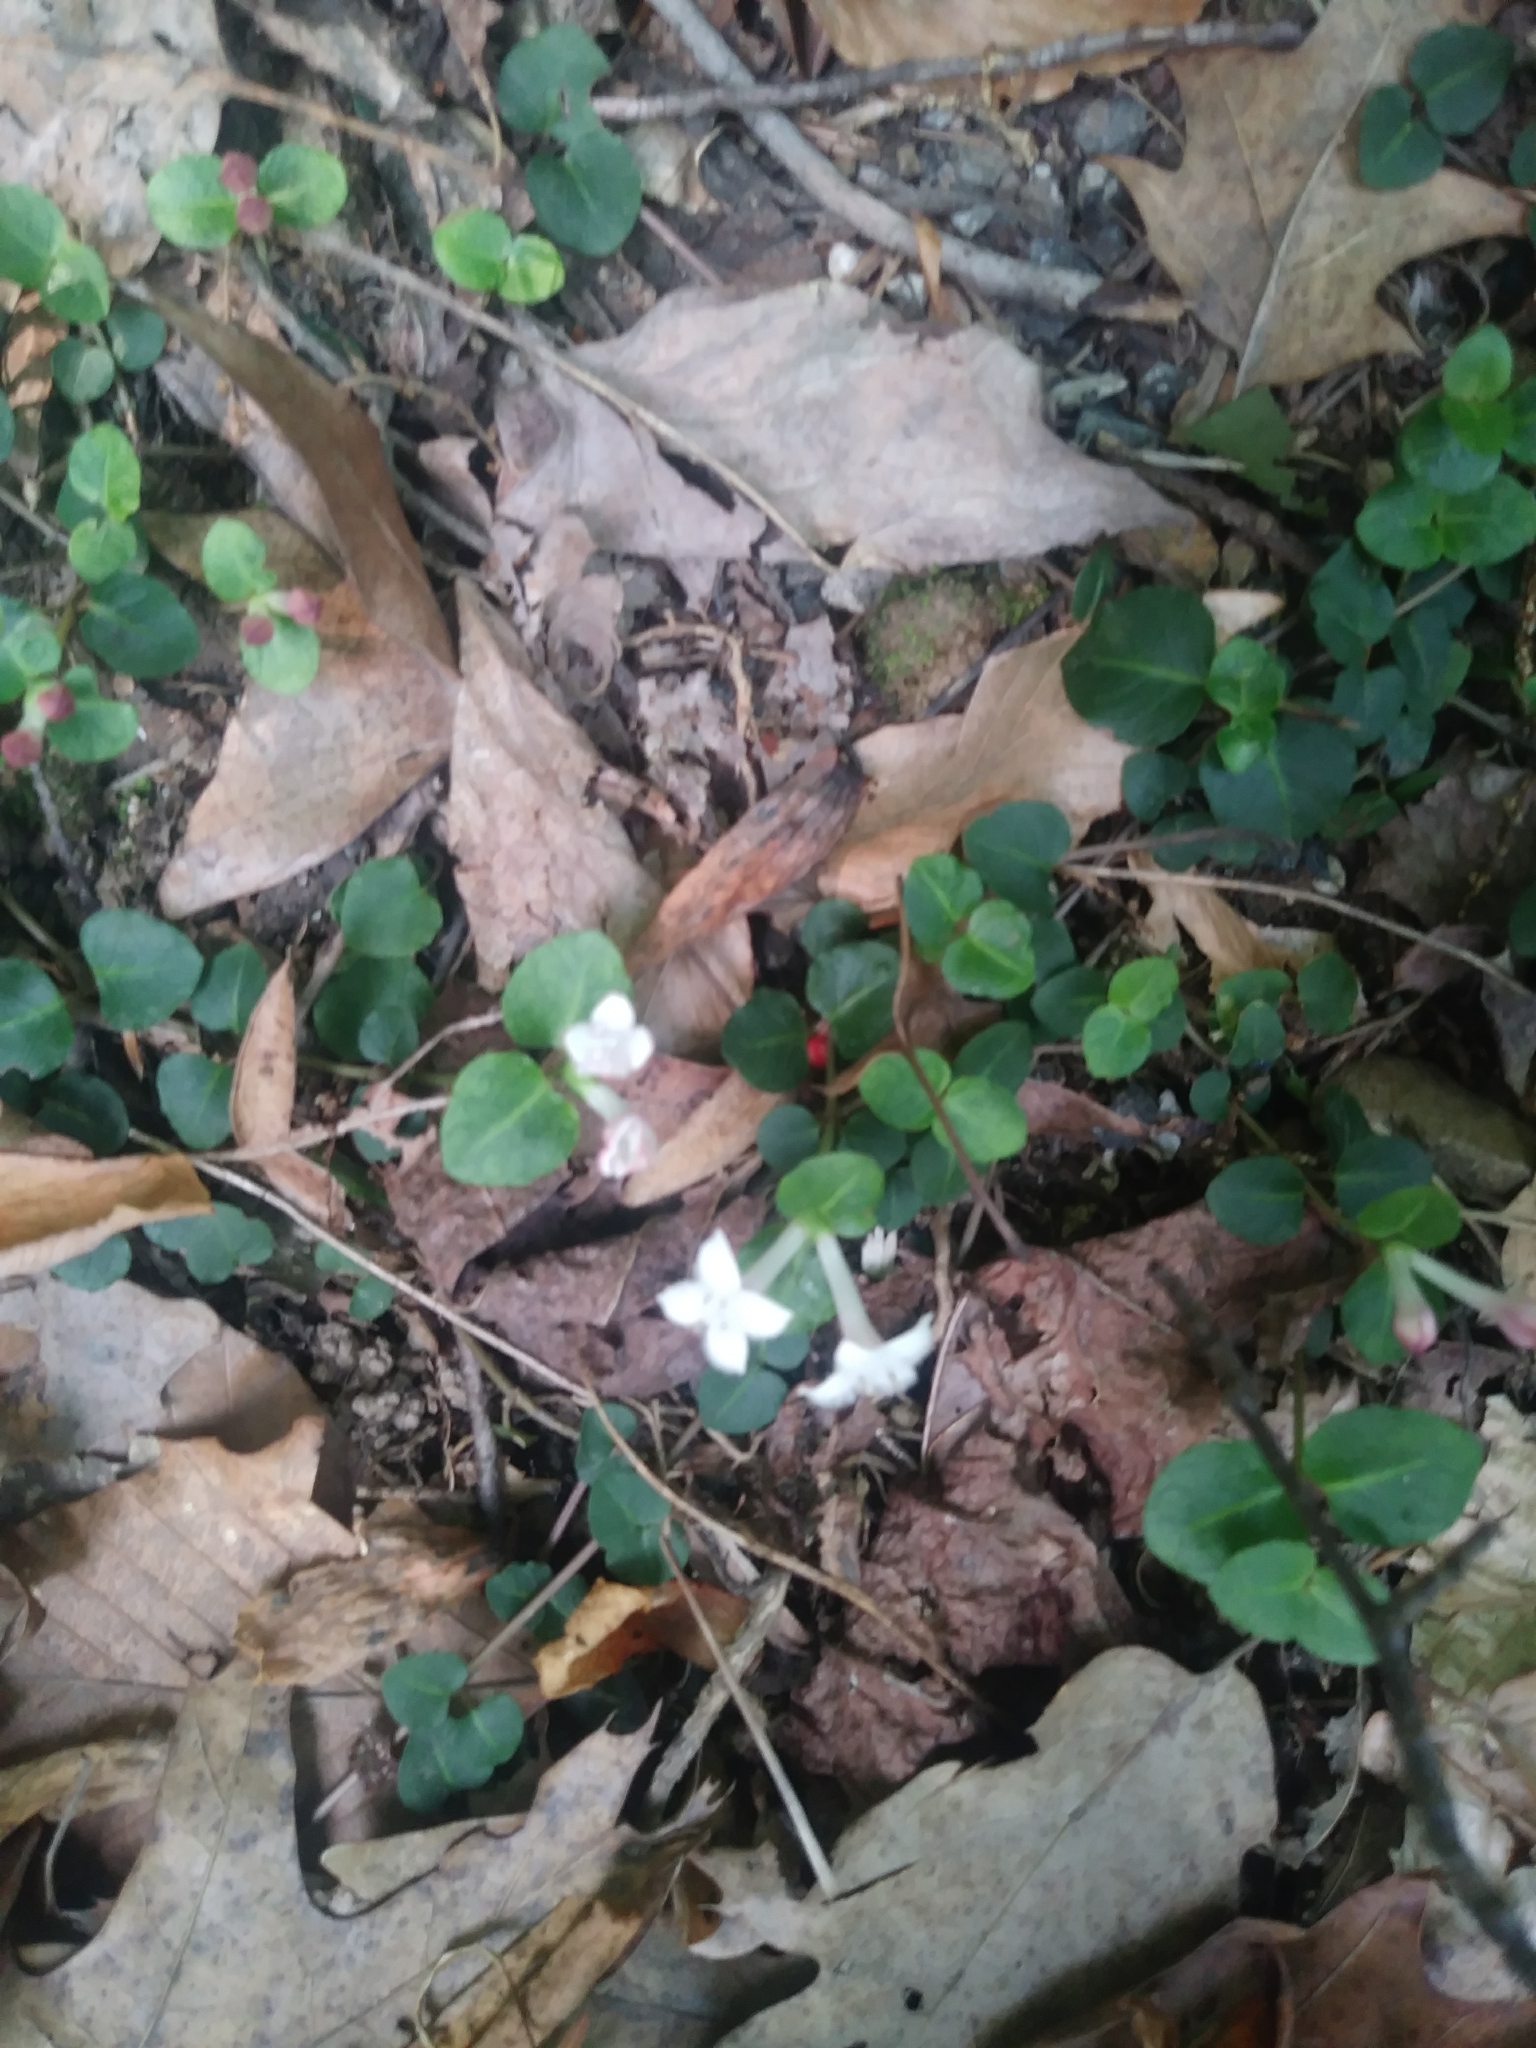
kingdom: Plantae
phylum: Tracheophyta
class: Magnoliopsida
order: Gentianales
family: Rubiaceae
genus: Mitchella
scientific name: Mitchella repens
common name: Partridge-berry
